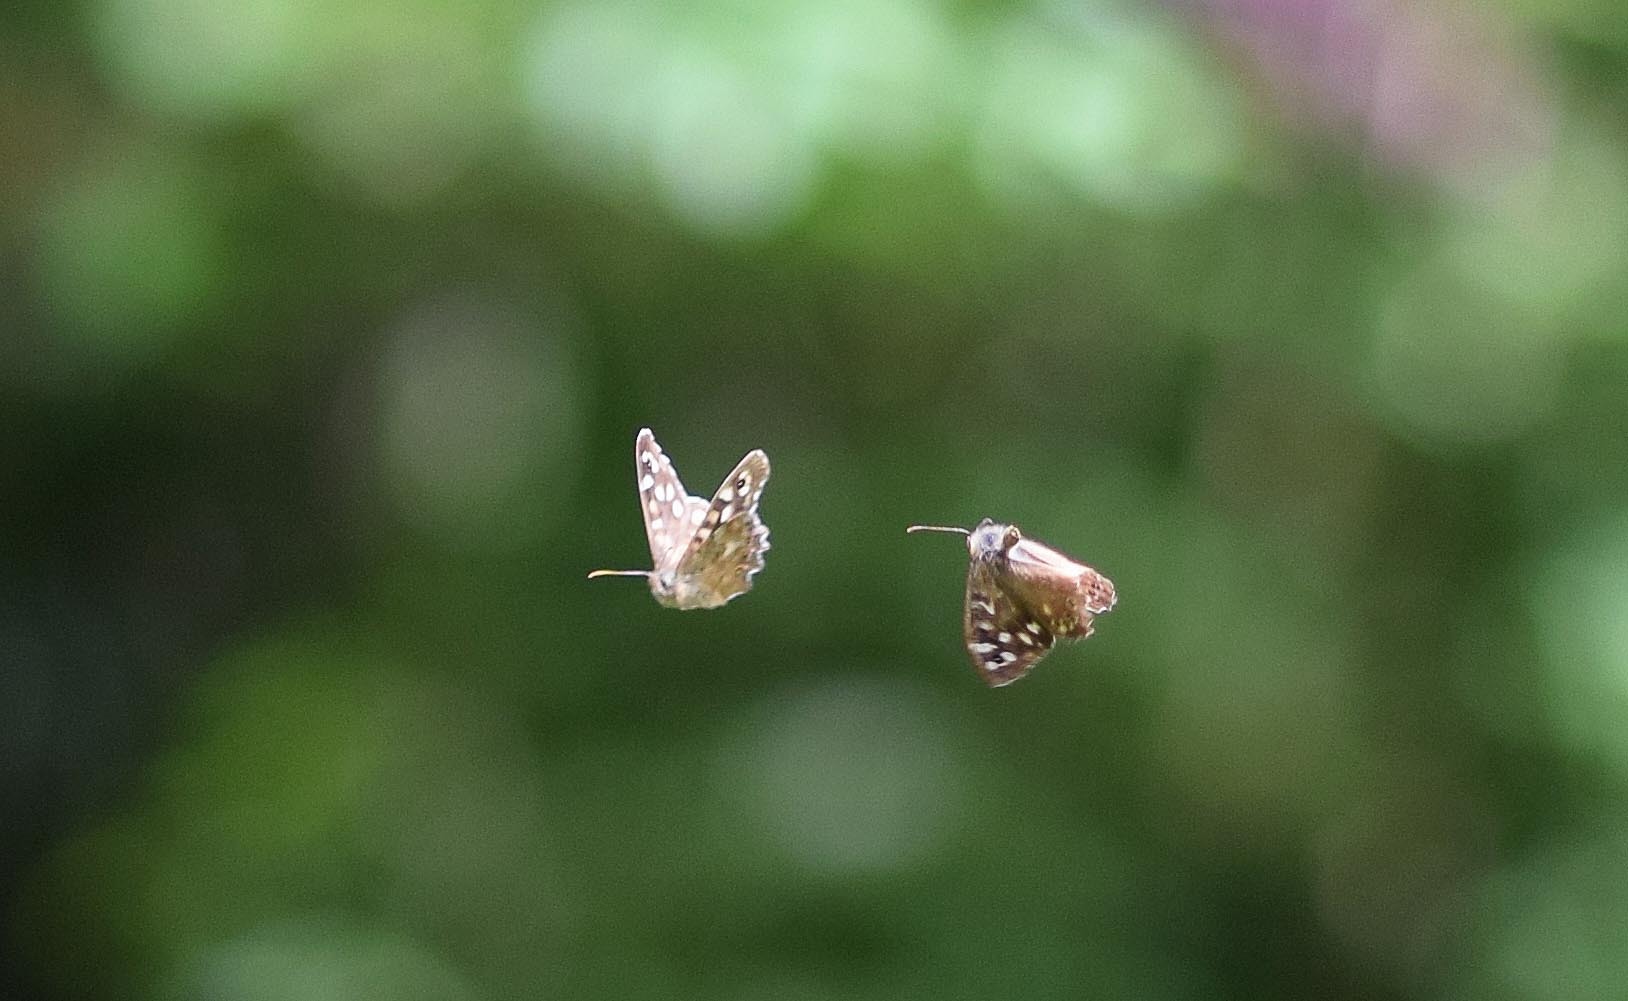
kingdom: Animalia
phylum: Arthropoda
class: Insecta
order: Lepidoptera
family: Nymphalidae
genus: Pararge
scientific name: Pararge aegeria
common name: Speckled wood
